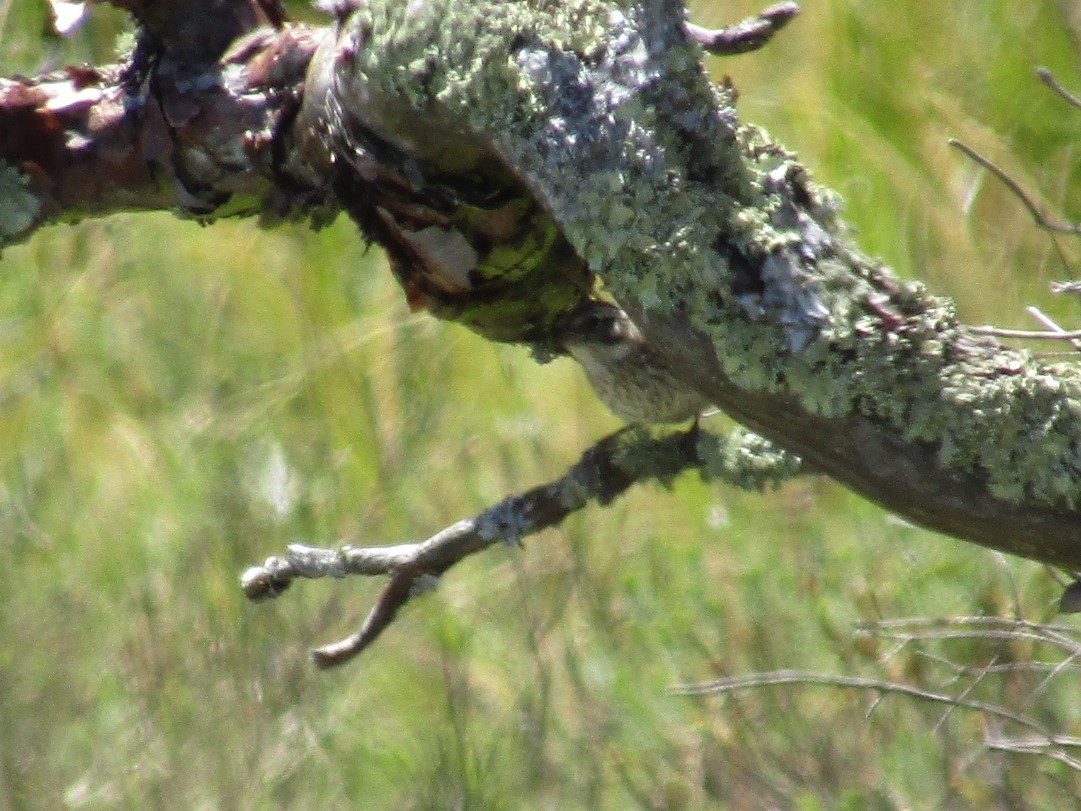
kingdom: Animalia
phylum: Chordata
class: Aves
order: Passeriformes
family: Passerellidae
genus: Zonotrichia
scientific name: Zonotrichia capensis
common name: Rufous-collared sparrow
